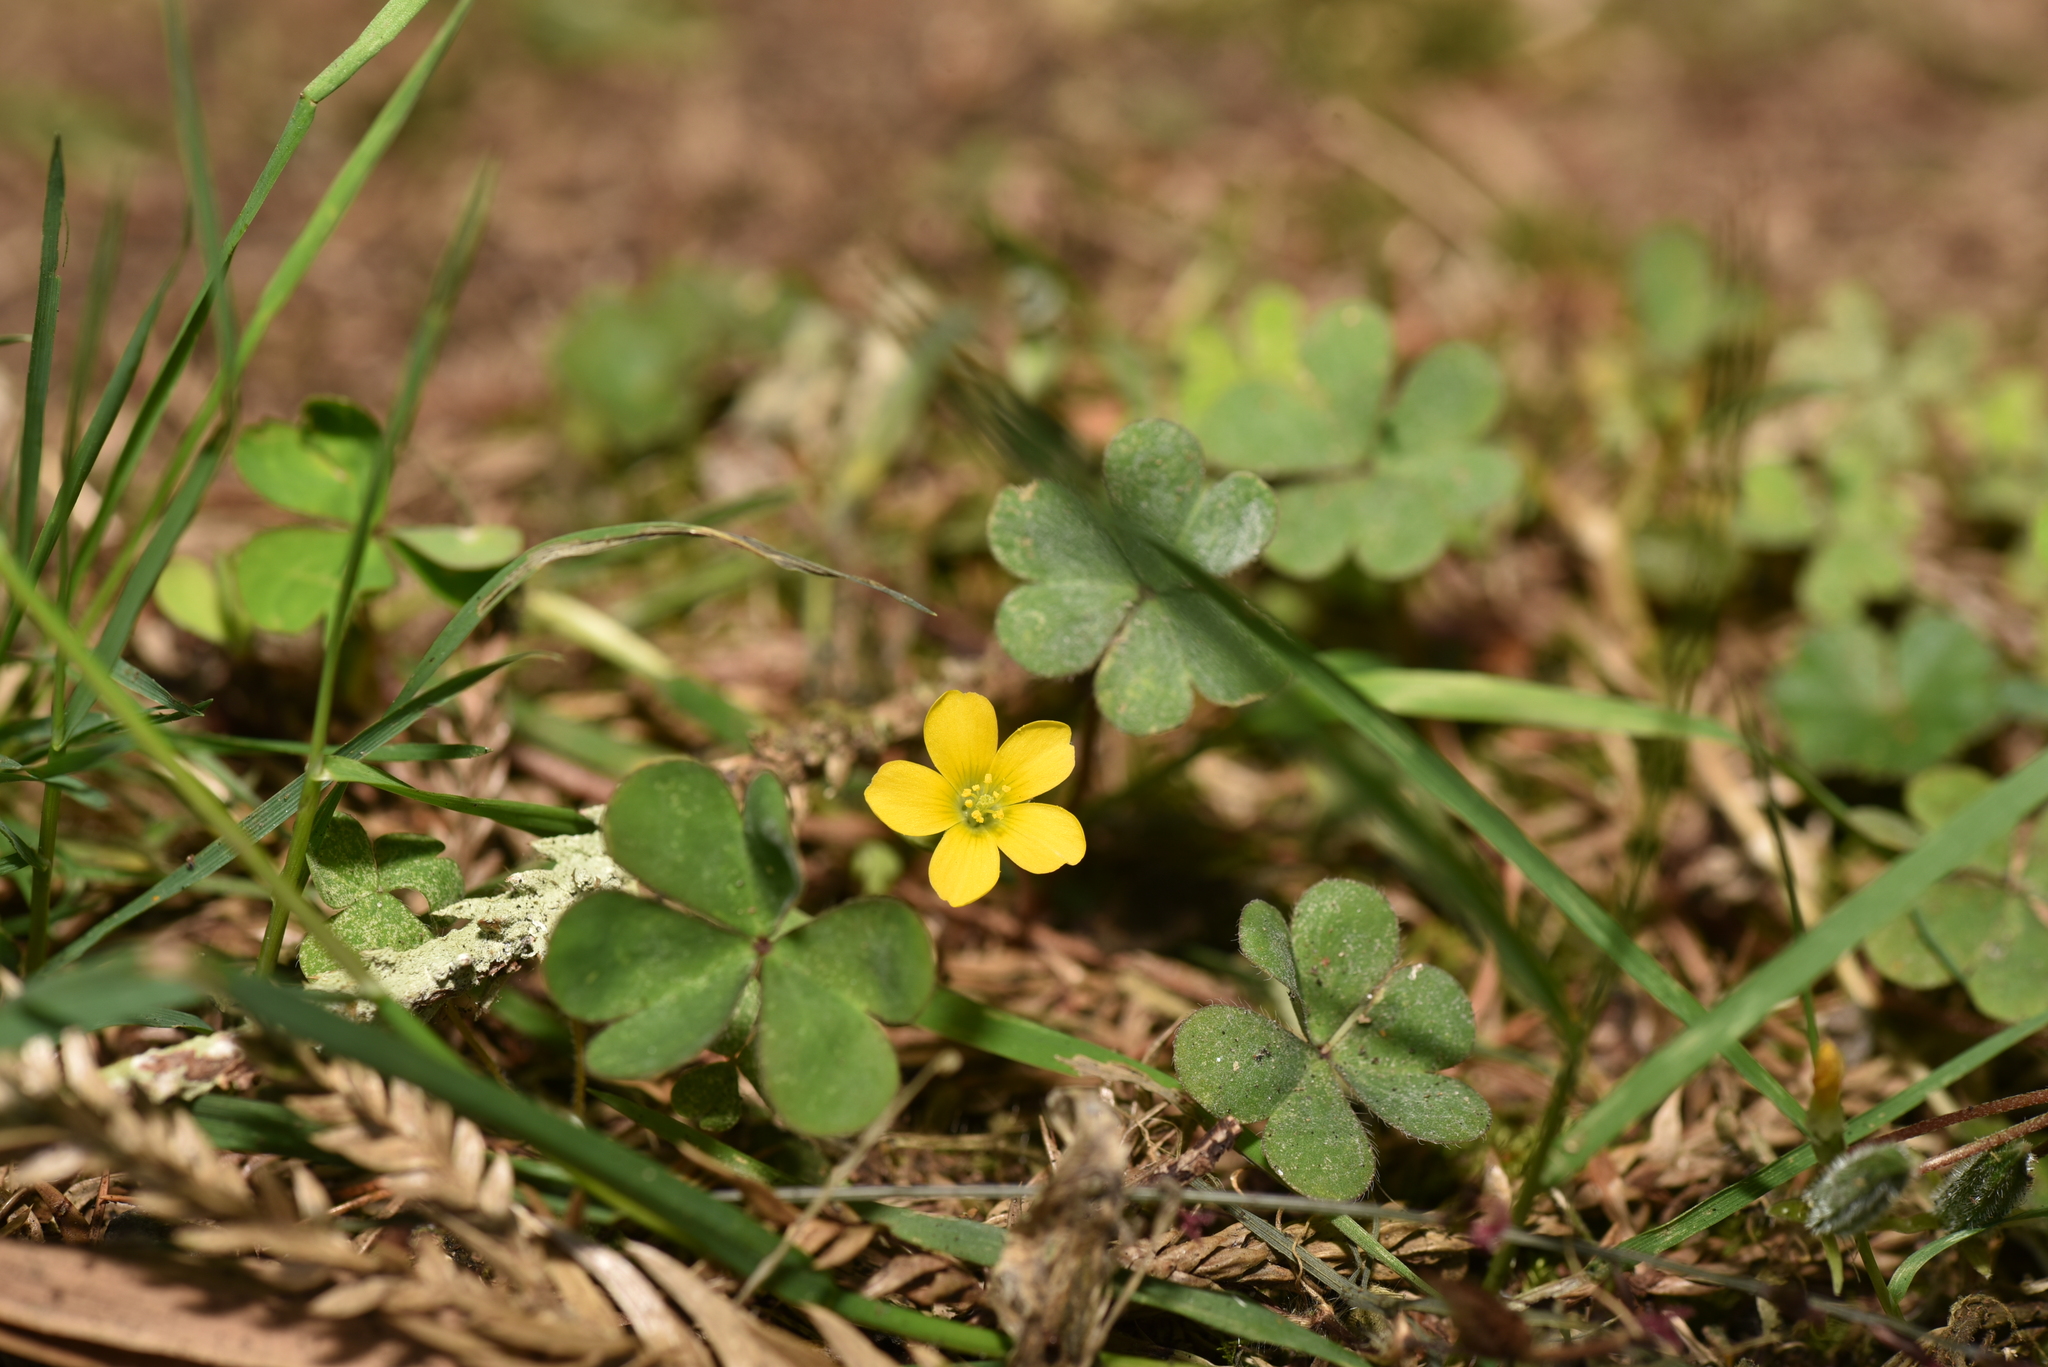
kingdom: Plantae
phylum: Tracheophyta
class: Magnoliopsida
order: Oxalidales
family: Oxalidaceae
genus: Oxalis
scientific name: Oxalis corniculata
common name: Procumbent yellow-sorrel
